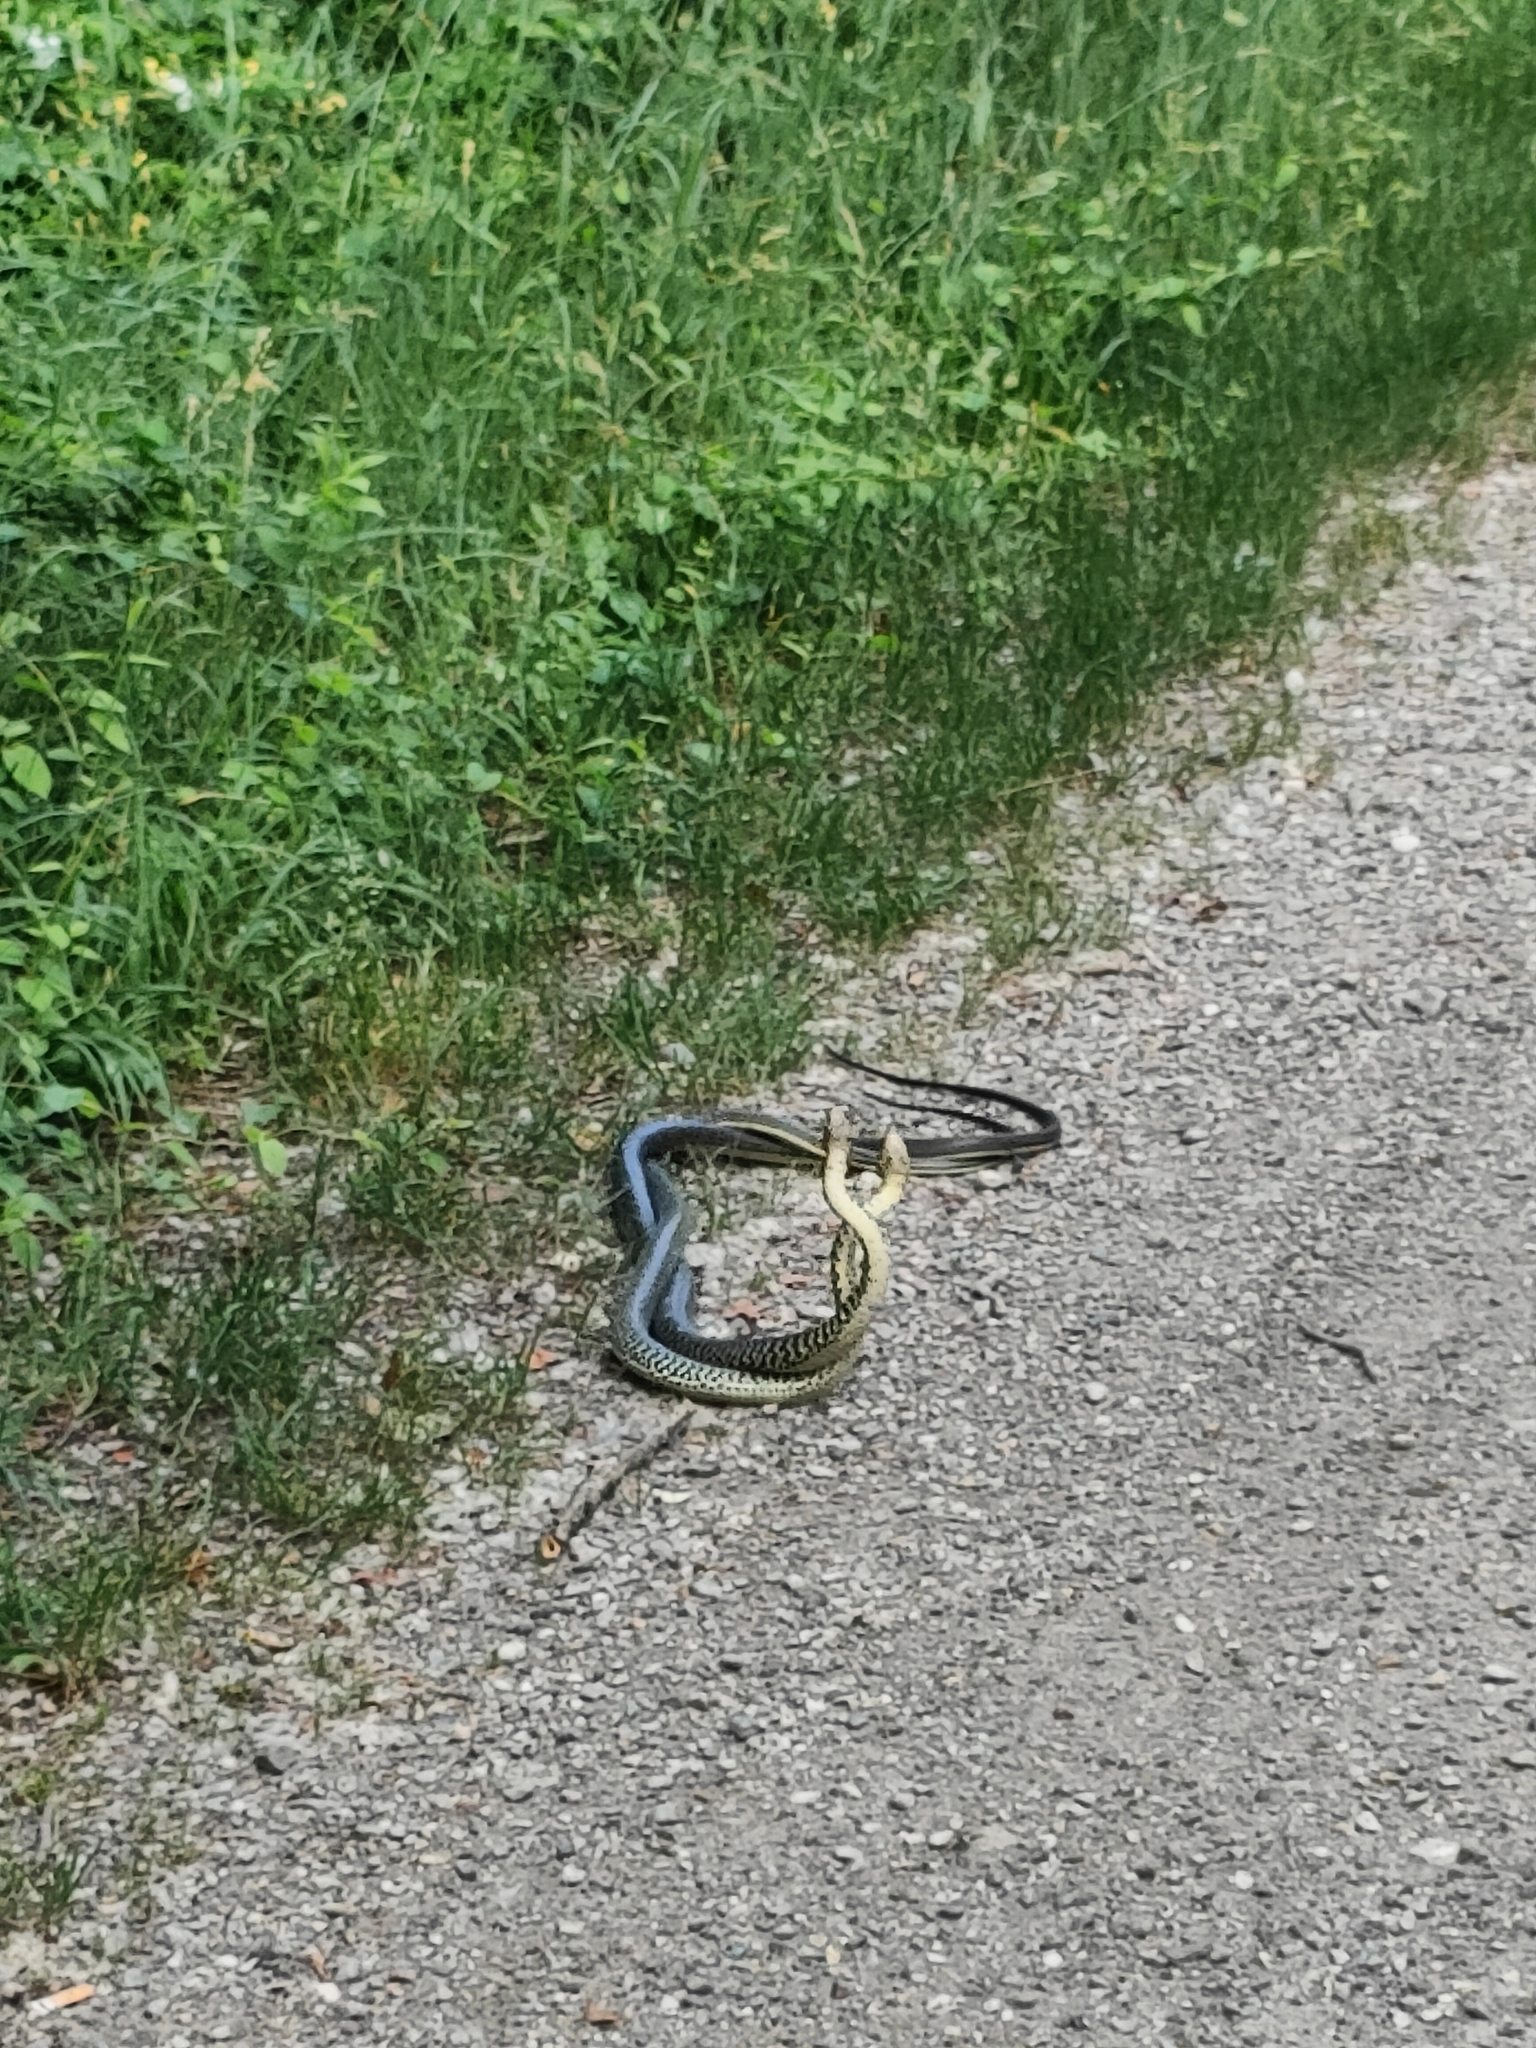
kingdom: Animalia
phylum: Chordata
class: Squamata
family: Colubridae
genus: Hierophis
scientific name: Hierophis viridiflavus
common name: Green whip snake
